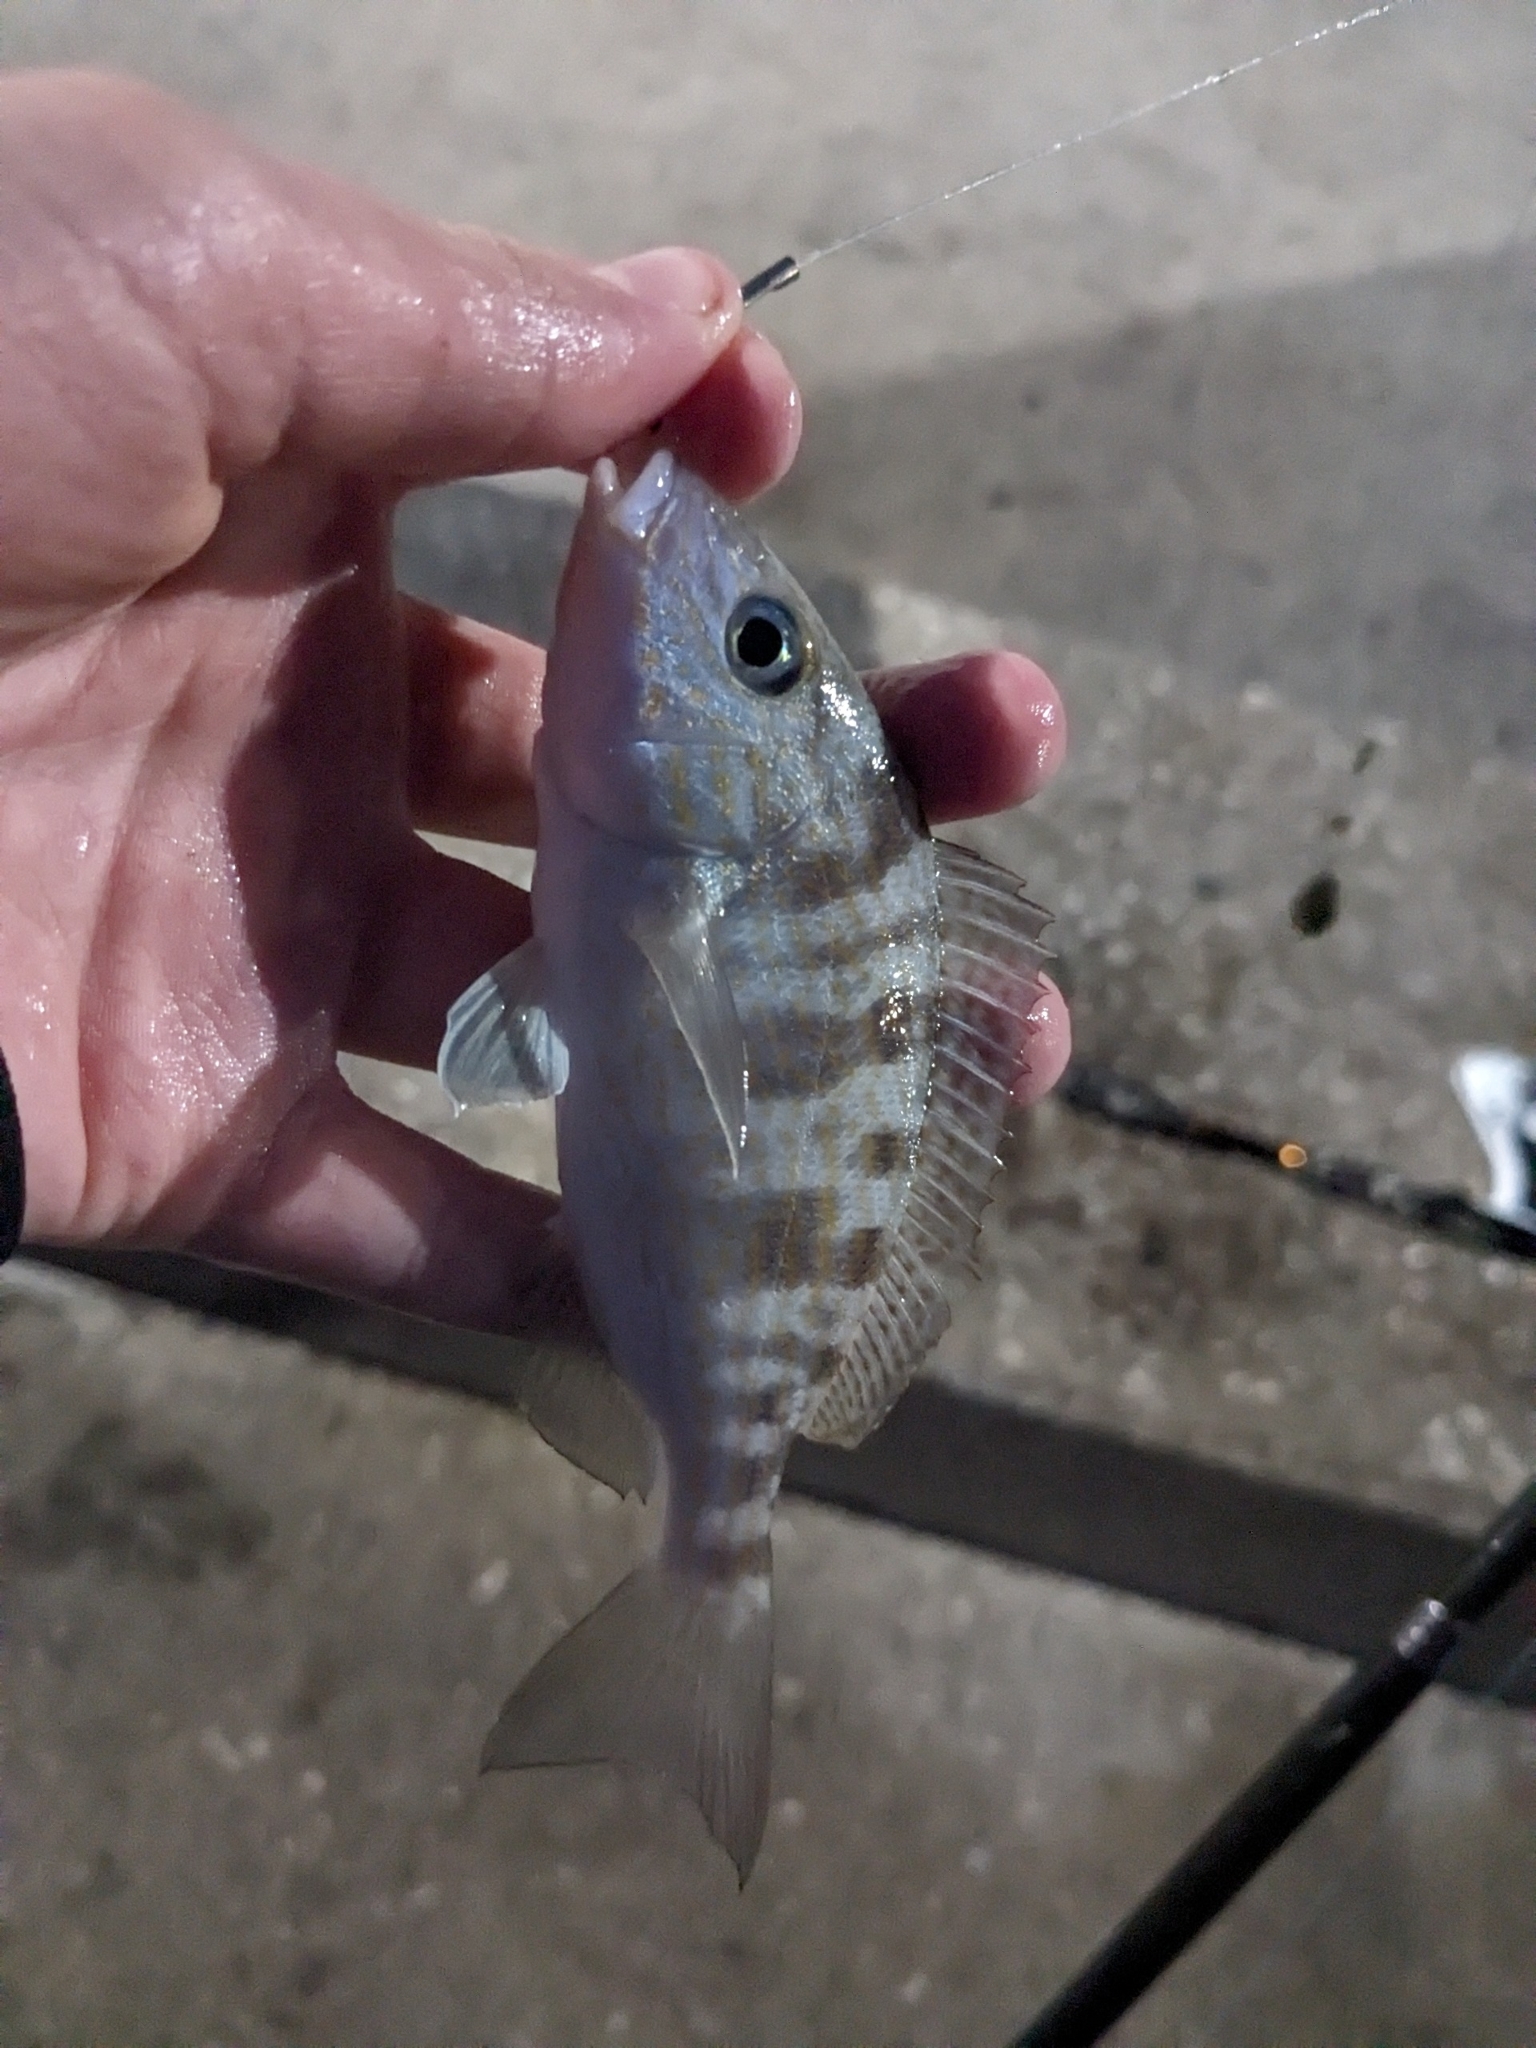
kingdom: Animalia
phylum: Chordata
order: Perciformes
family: Haemulidae
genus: Orthopristis
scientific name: Orthopristis chrysoptera
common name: Pigfish
